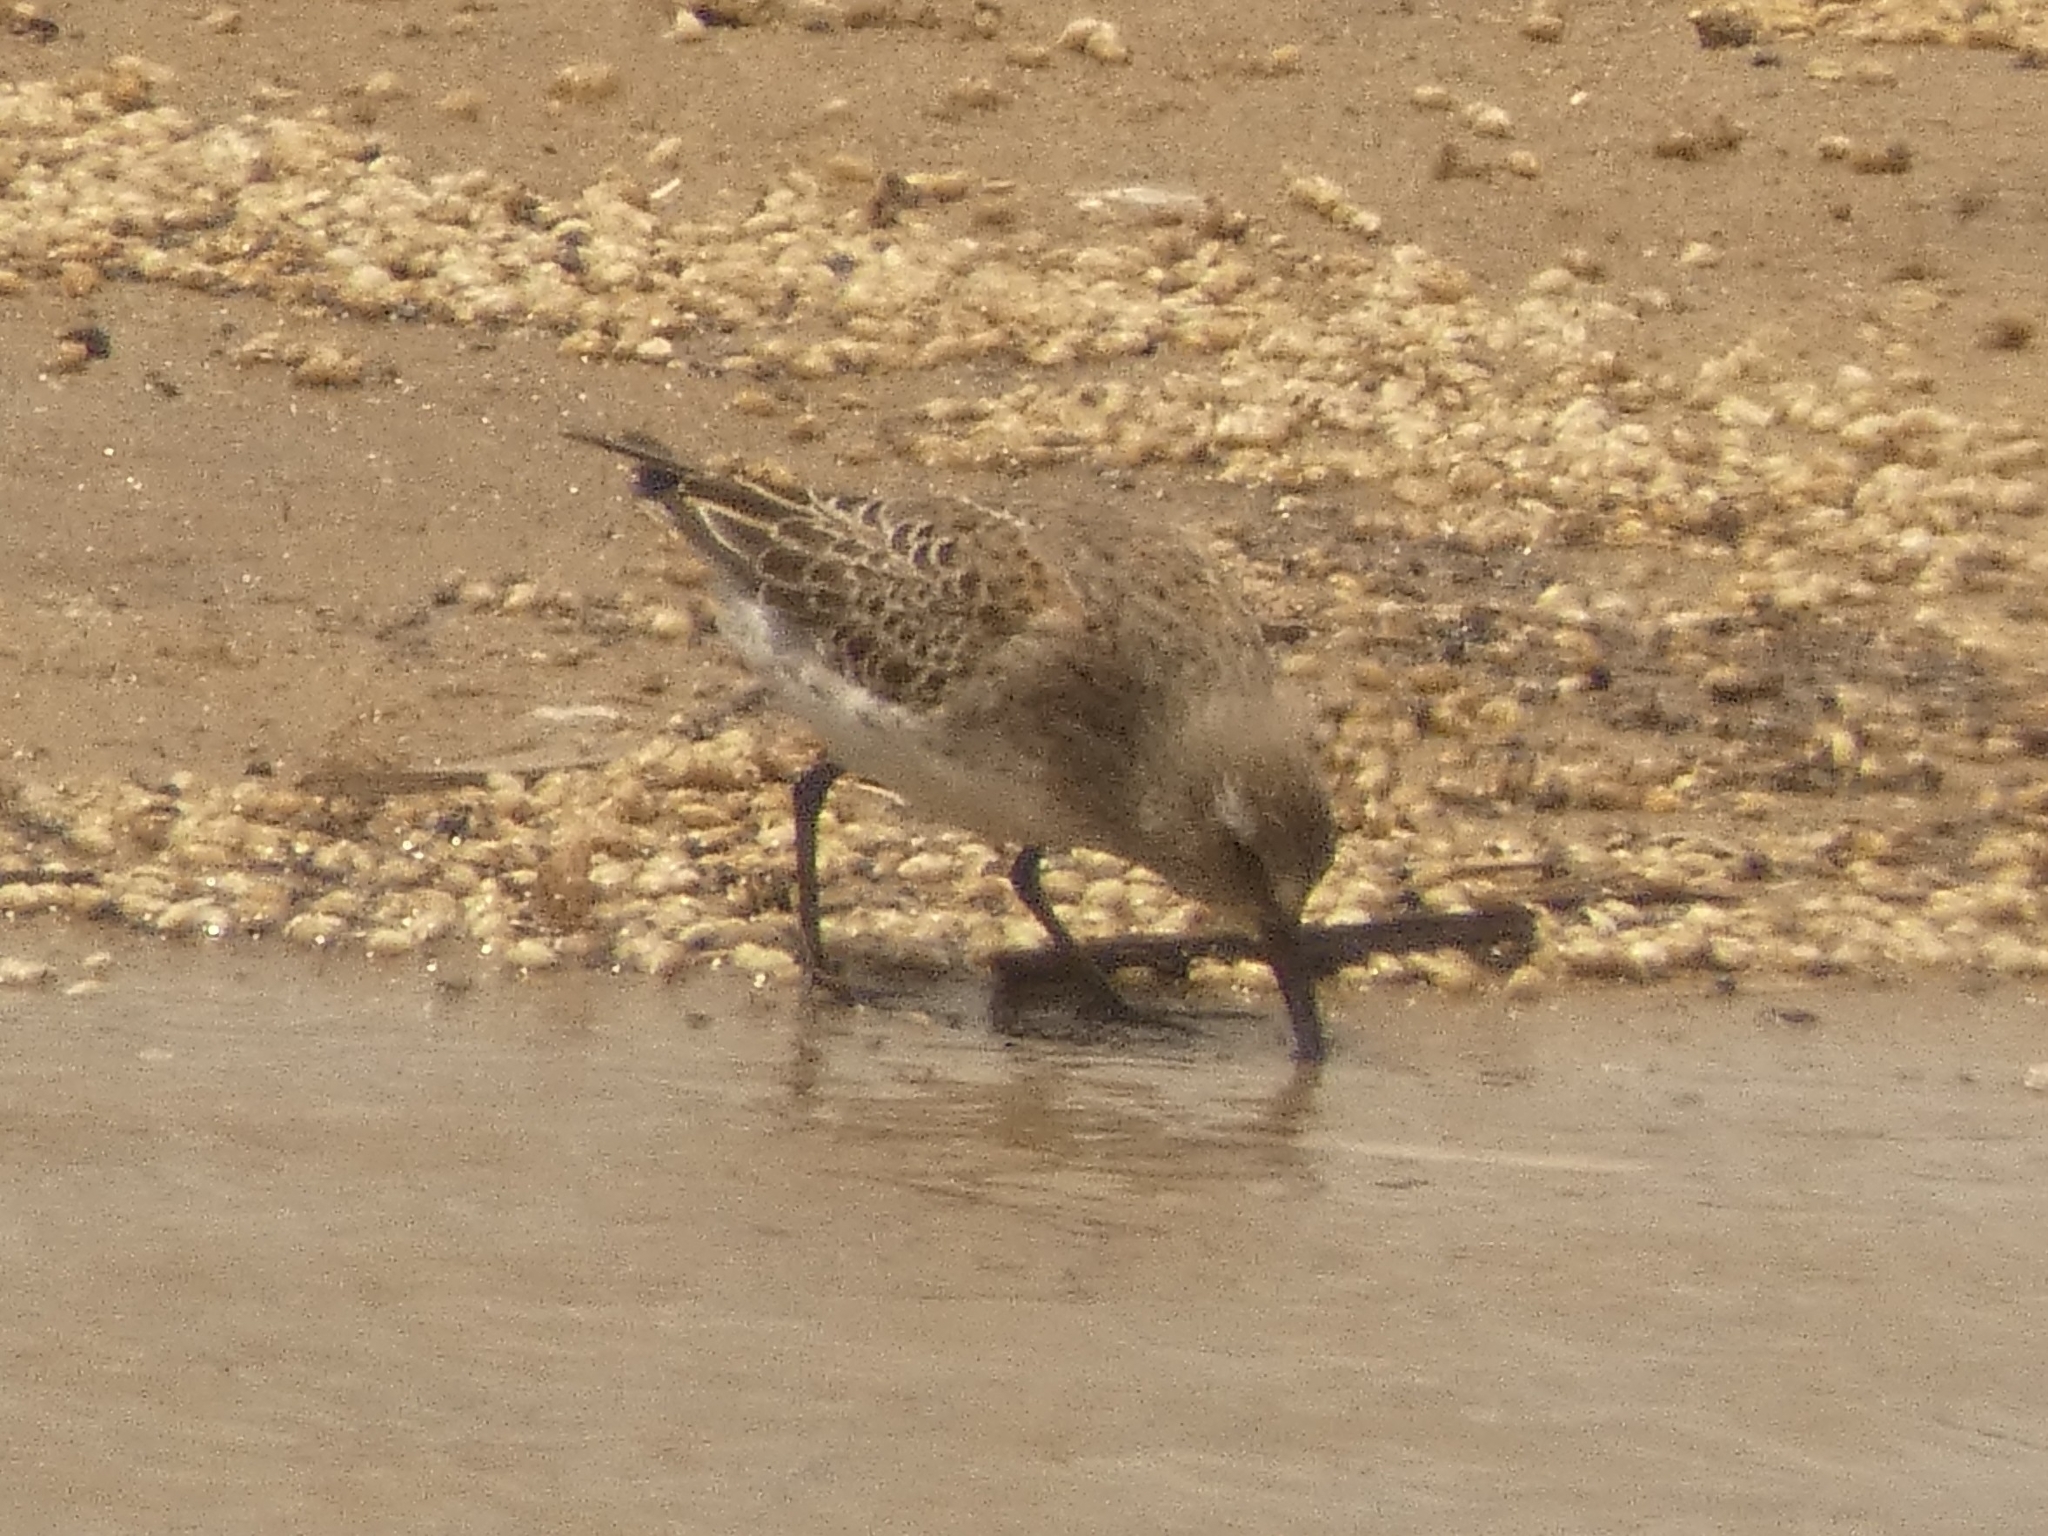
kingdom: Animalia
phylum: Chordata
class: Aves
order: Charadriiformes
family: Scolopacidae
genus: Calidris
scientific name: Calidris fuscicollis
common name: White-rumped sandpiper
